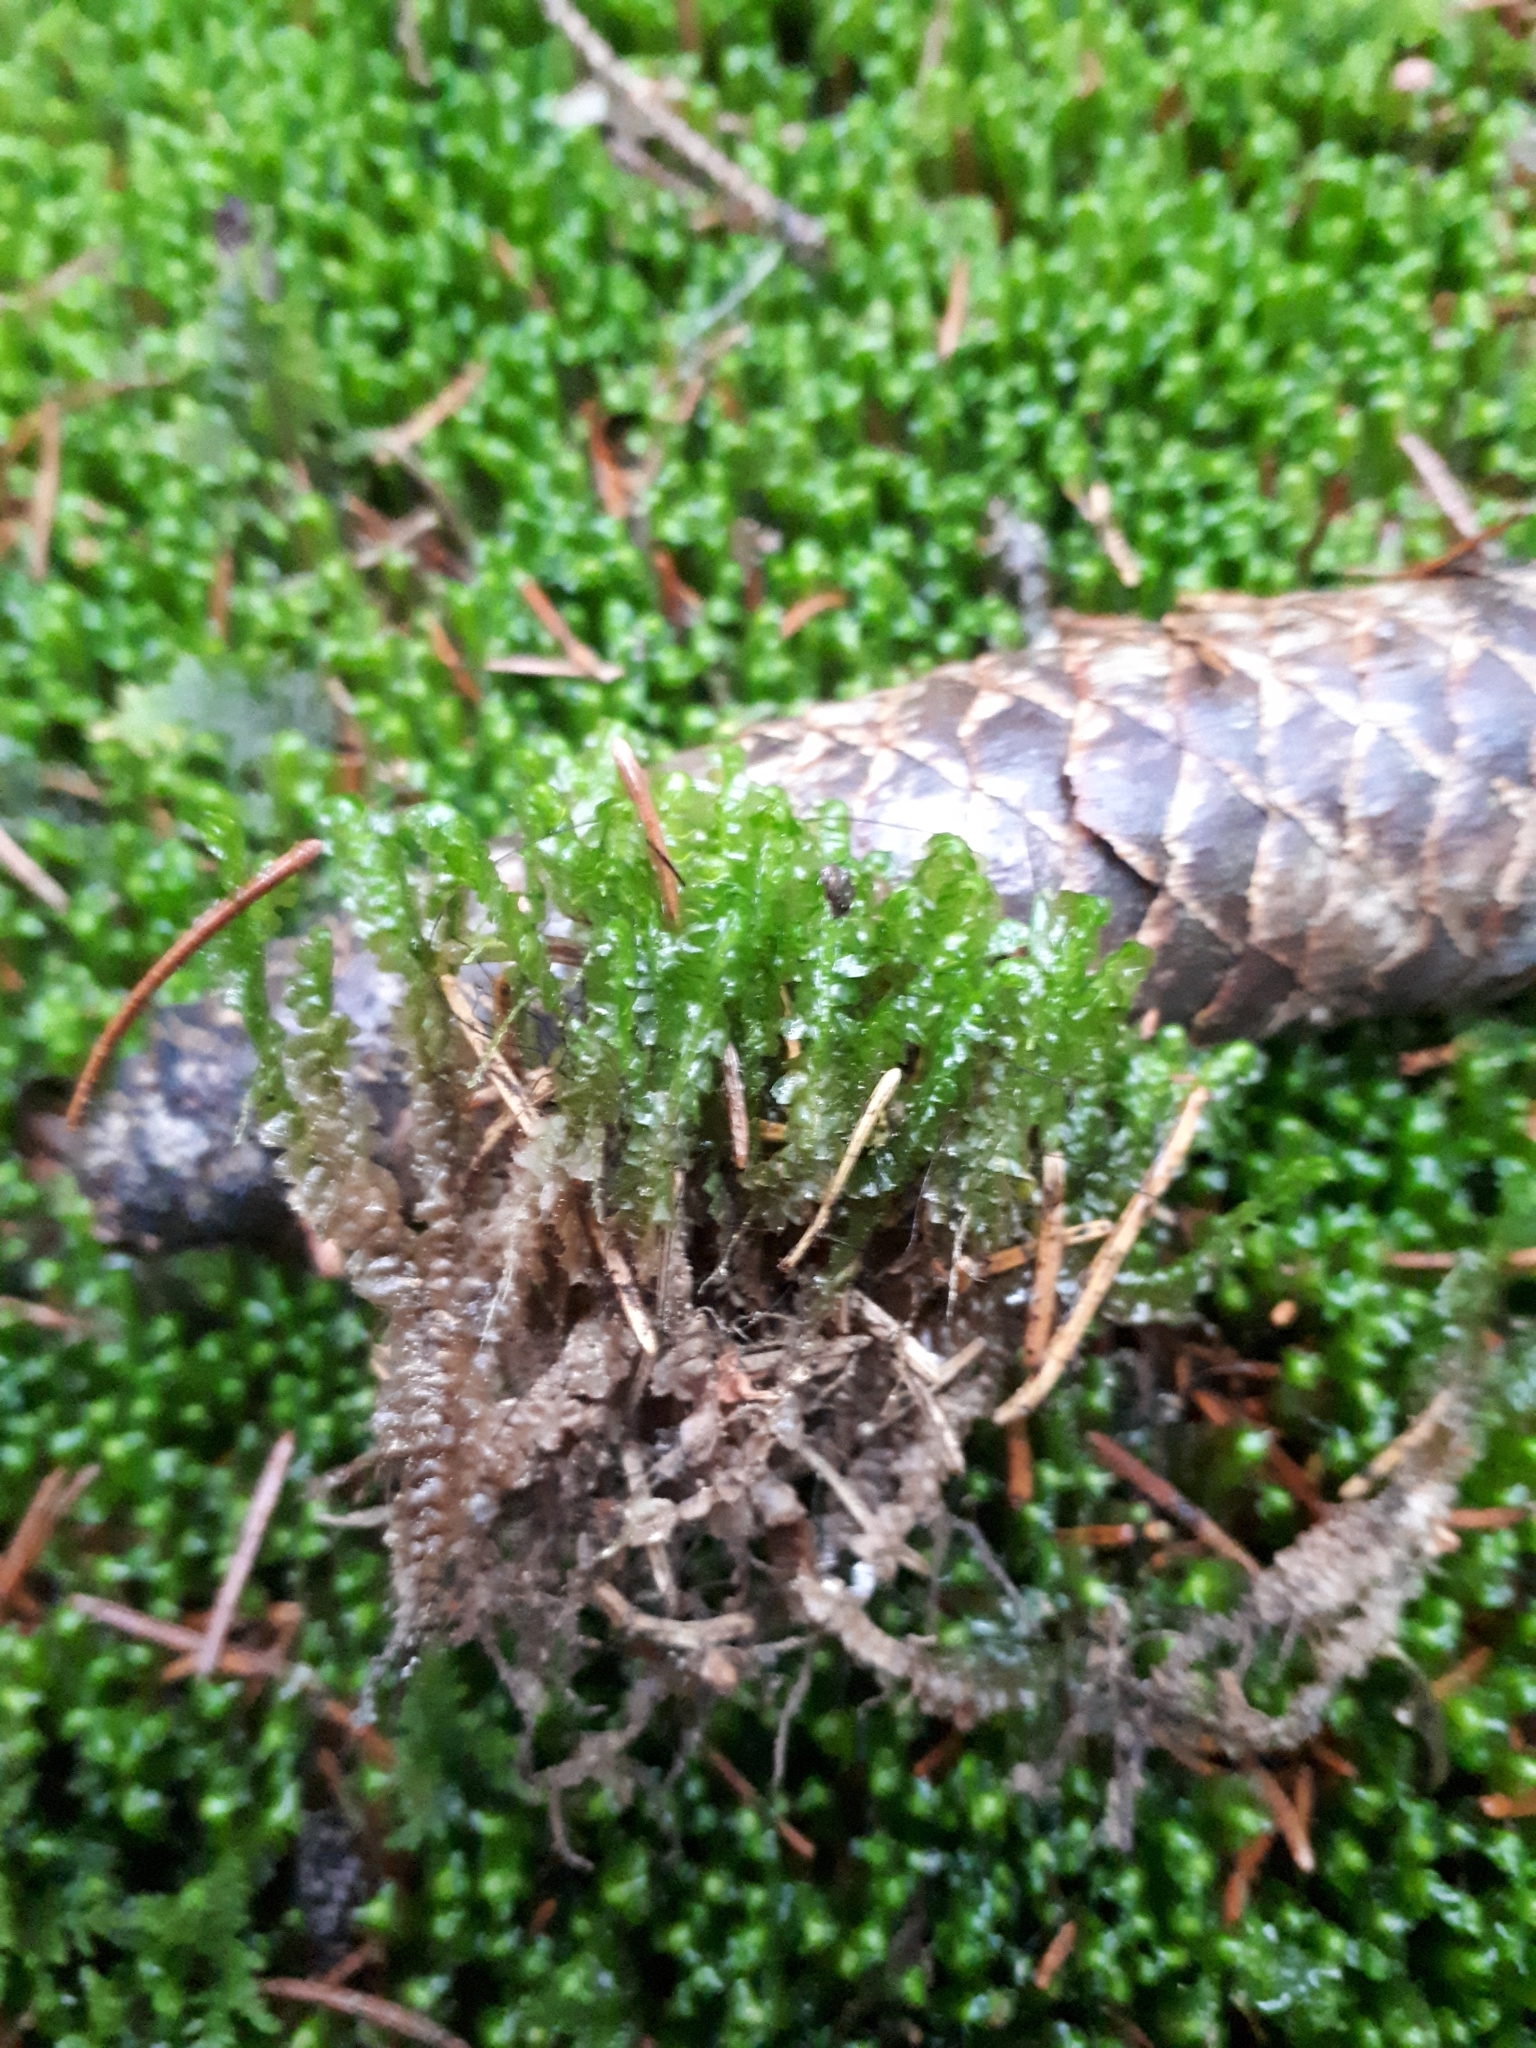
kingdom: Plantae
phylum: Marchantiophyta
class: Jungermanniopsida
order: Jungermanniales
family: Lepidoziaceae
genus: Bazzania
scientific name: Bazzania trilobata
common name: Three-lobed whipwort
